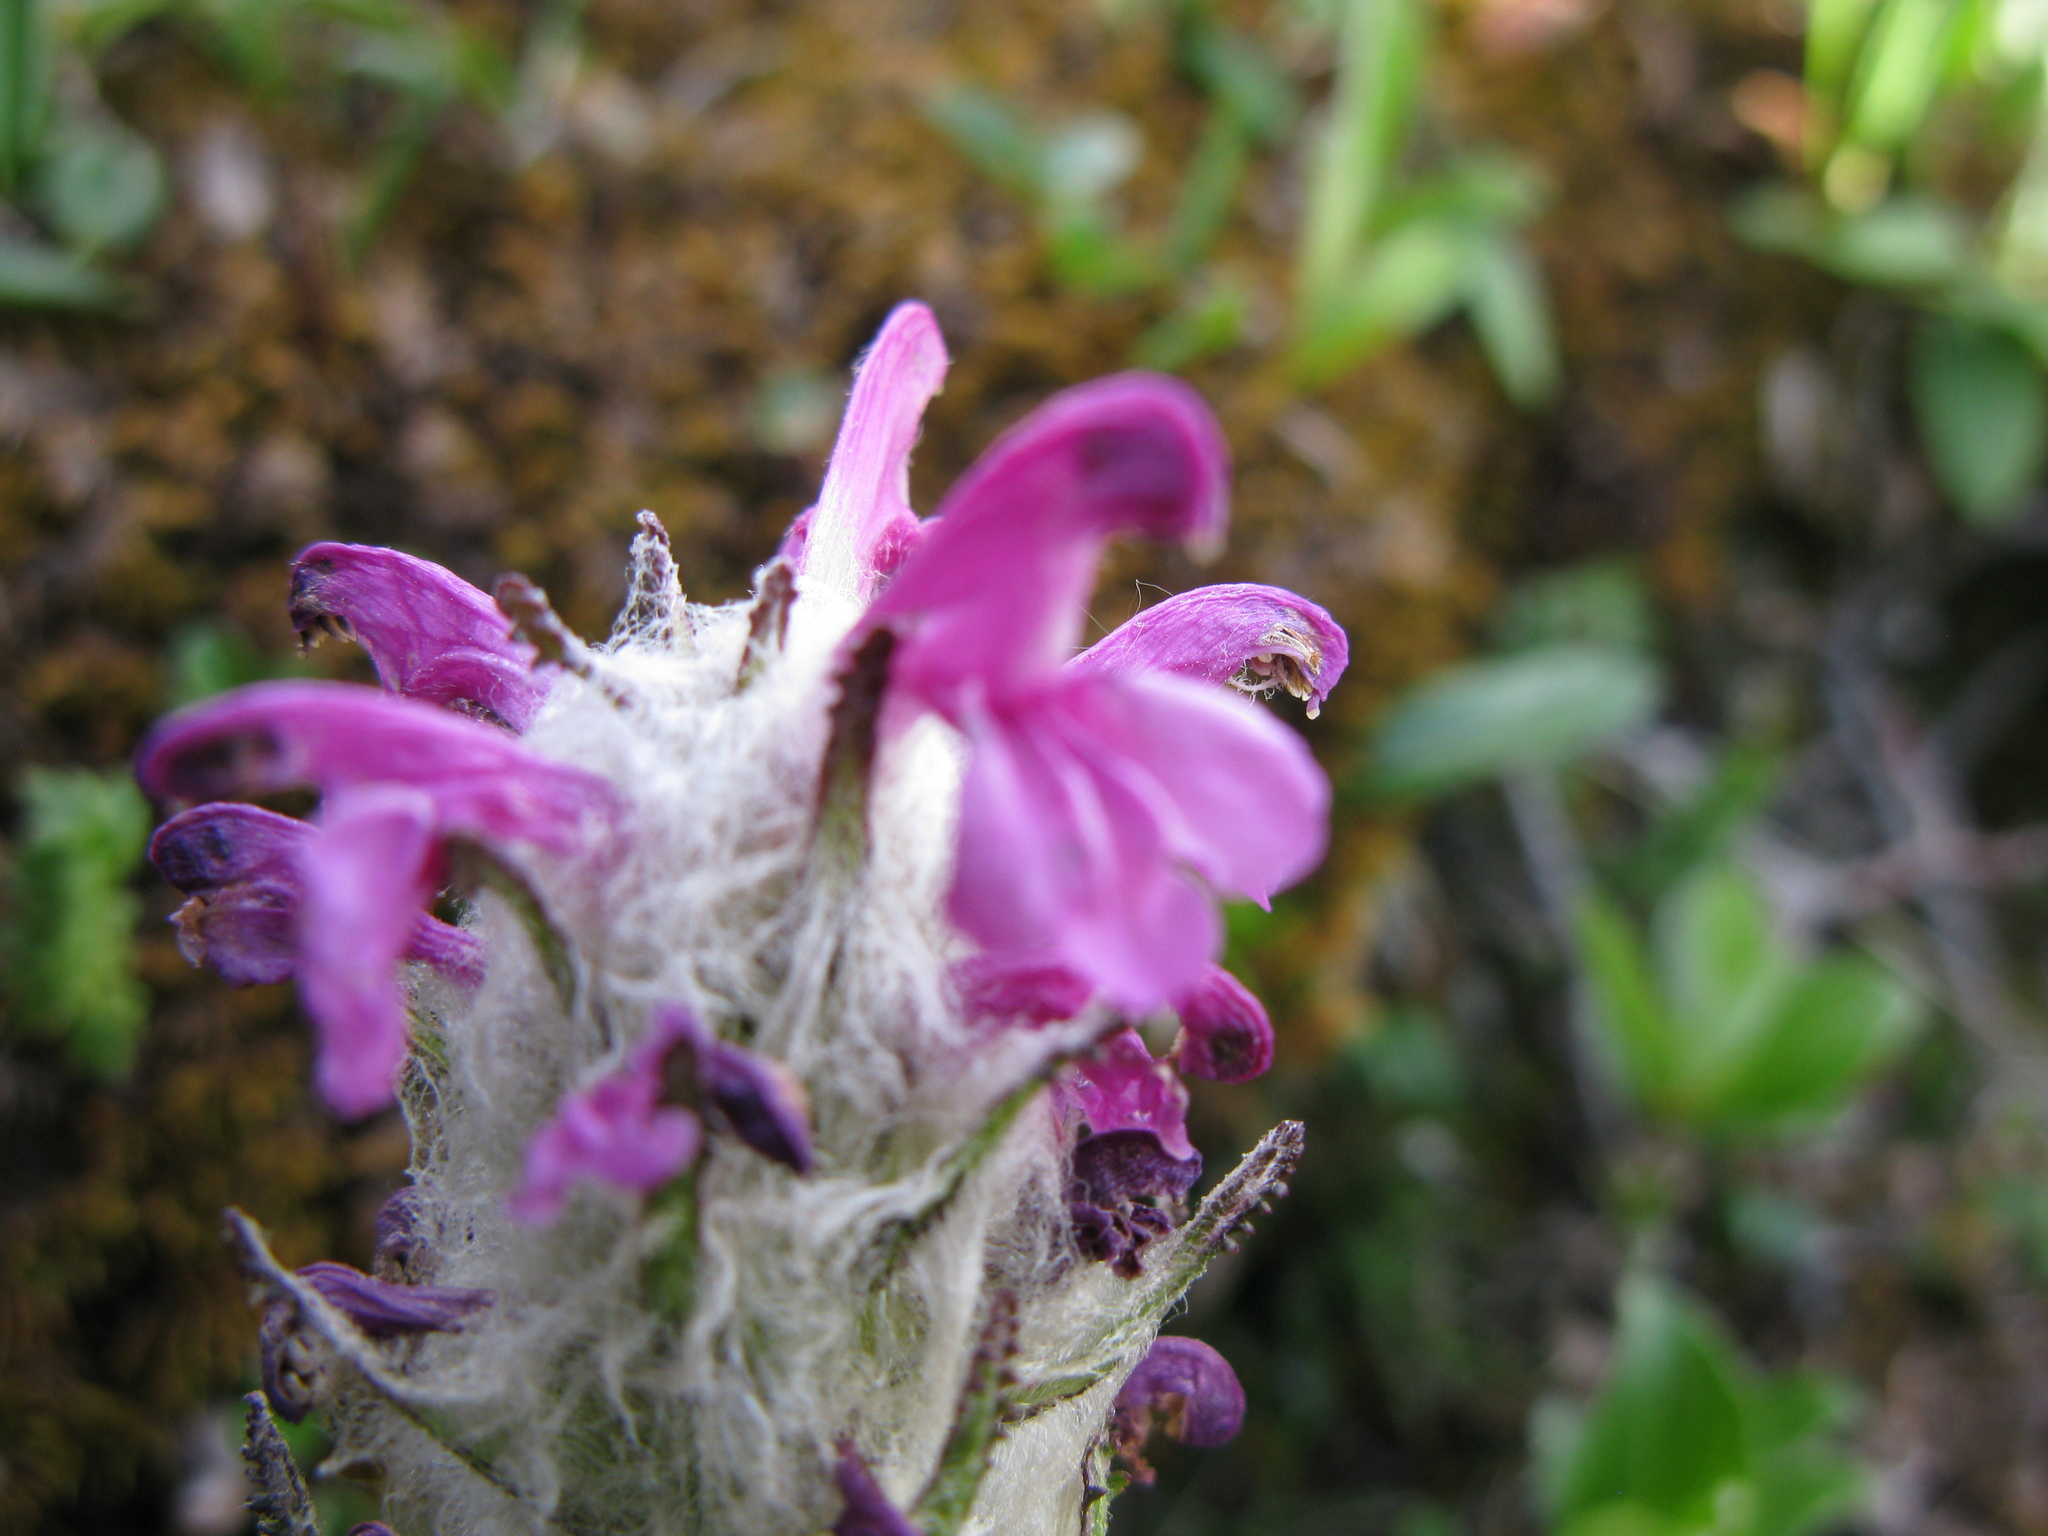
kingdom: Plantae
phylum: Tracheophyta
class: Magnoliopsida
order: Lamiales
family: Orobanchaceae
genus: Pedicularis
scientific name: Pedicularis lanata
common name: Woolly lousewort
